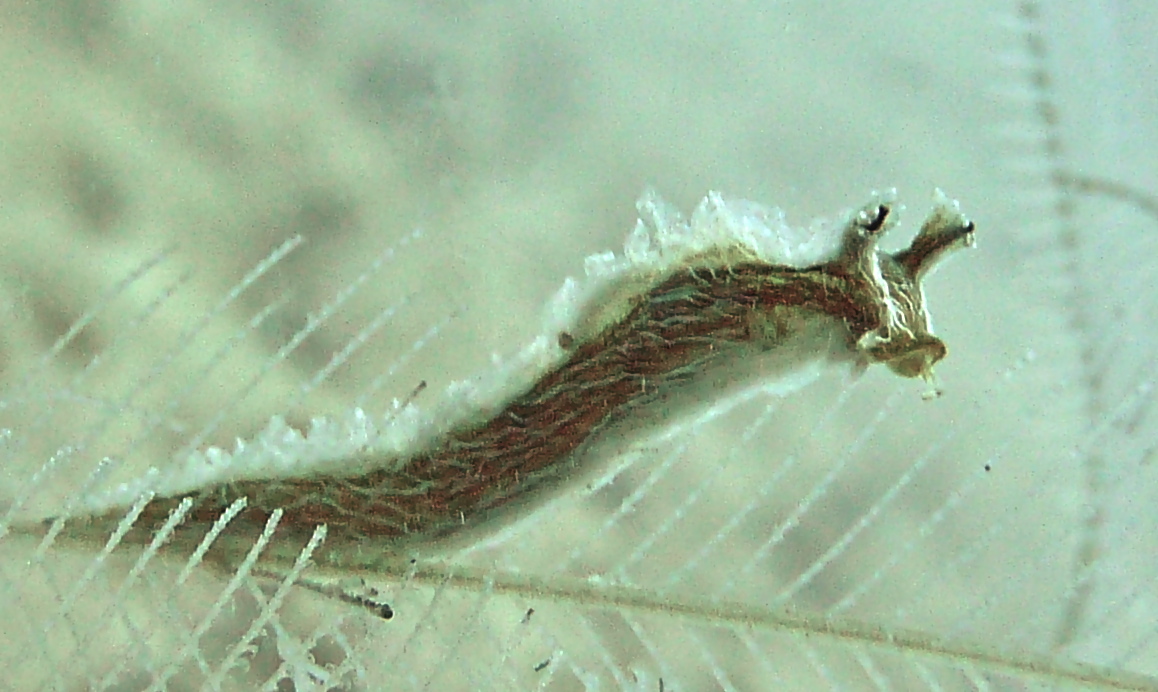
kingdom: Animalia
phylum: Mollusca
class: Gastropoda
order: Nudibranchia
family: Lomanotidae
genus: Lomanotus
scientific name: Lomanotus vermiformis
